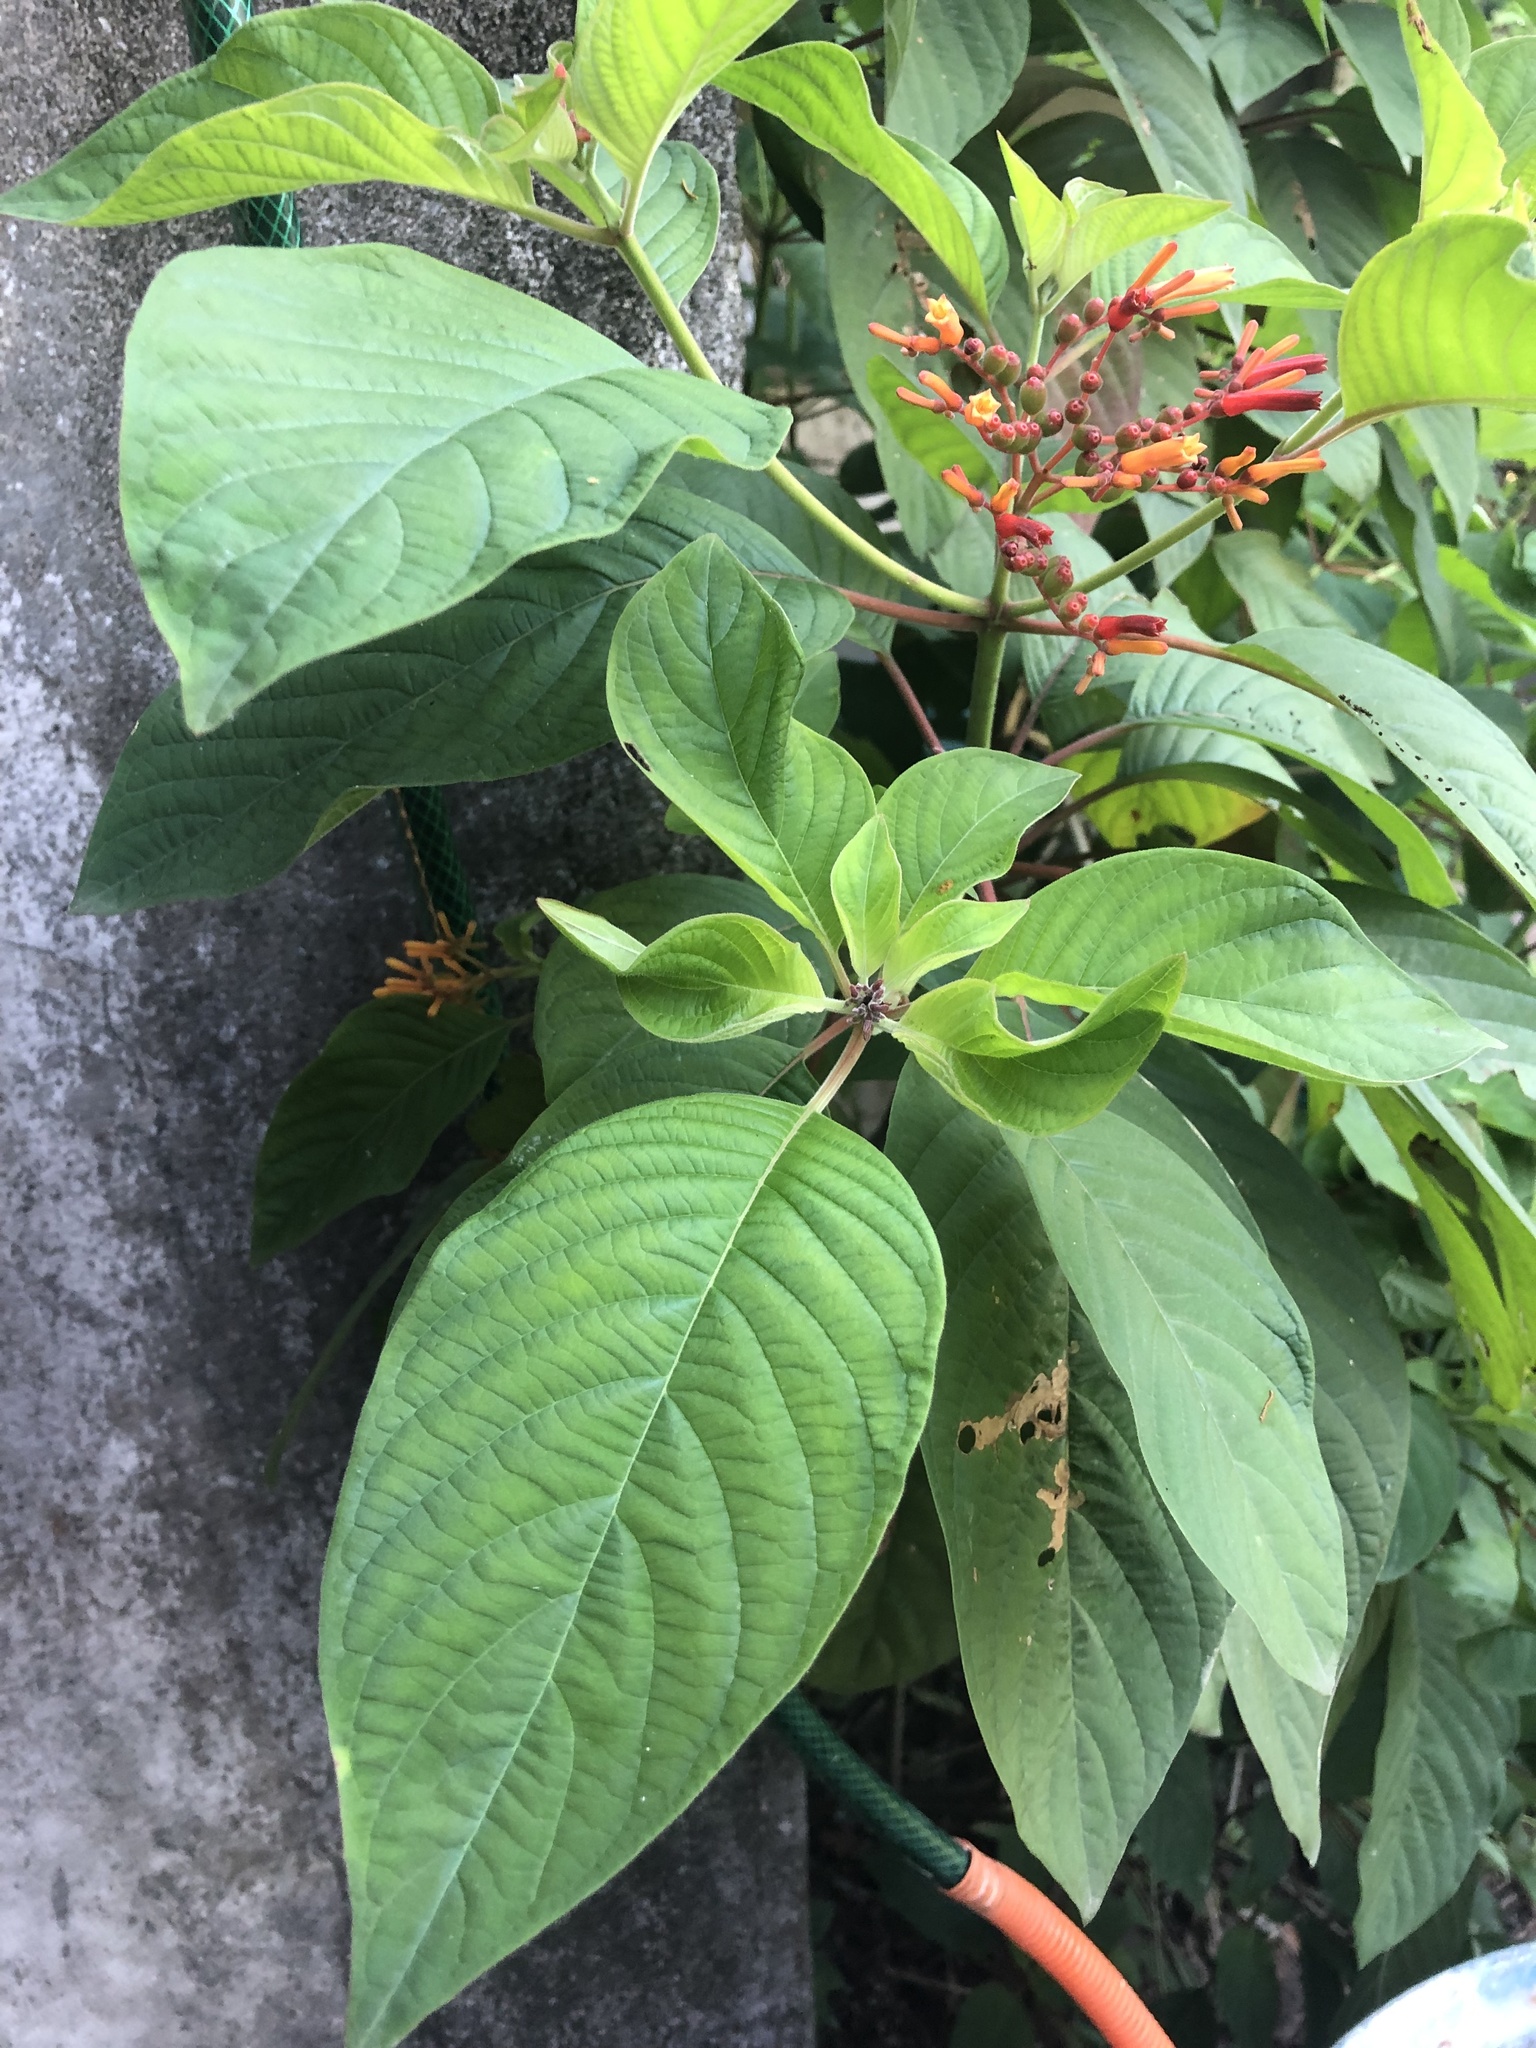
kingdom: Plantae
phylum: Tracheophyta
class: Magnoliopsida
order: Gentianales
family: Rubiaceae
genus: Hamelia
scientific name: Hamelia patens
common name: Redhead
